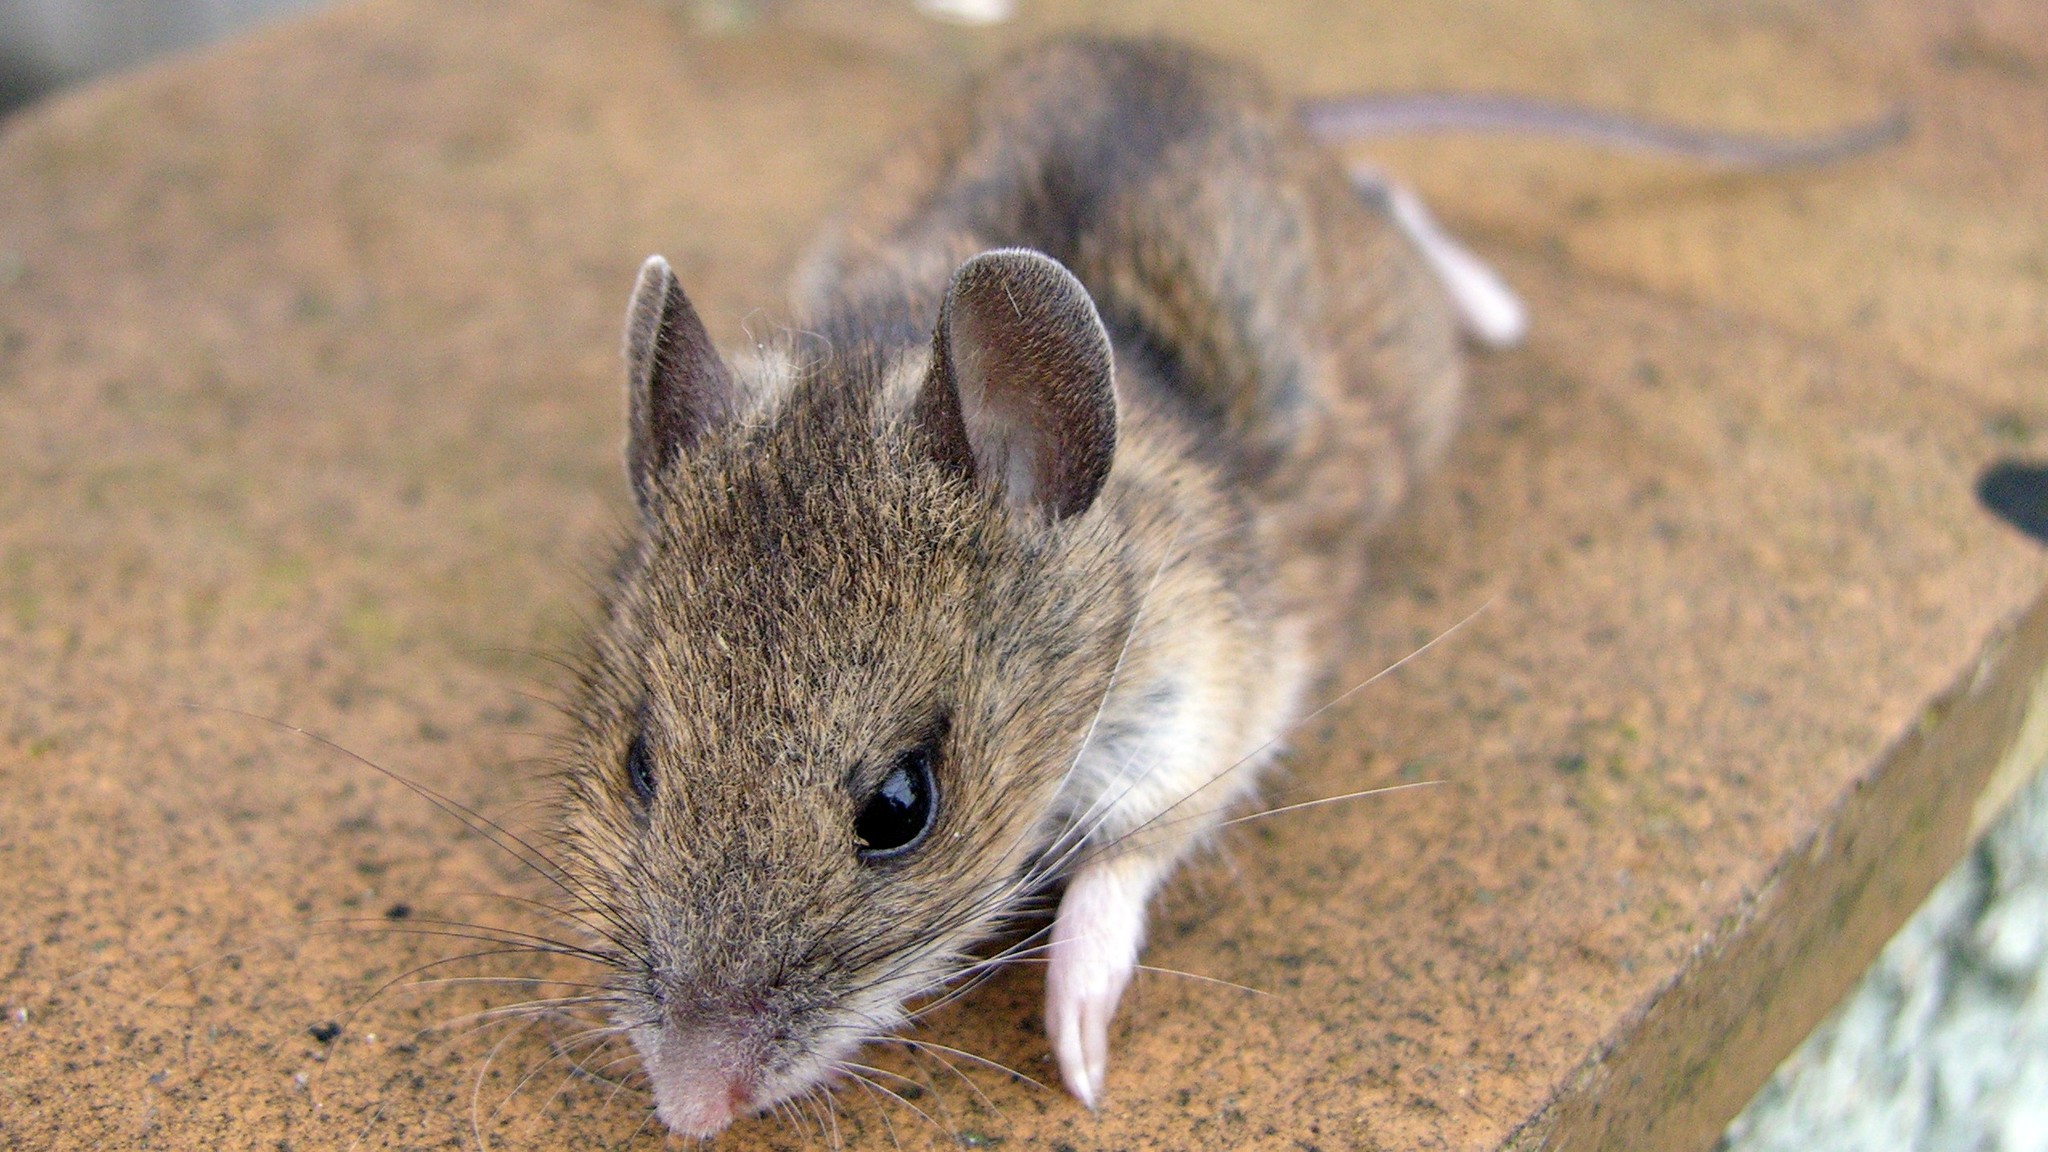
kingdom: Animalia
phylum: Chordata
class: Mammalia
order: Rodentia
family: Muridae
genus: Apodemus
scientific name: Apodemus flavicollis
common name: Yellow-necked field mouse
